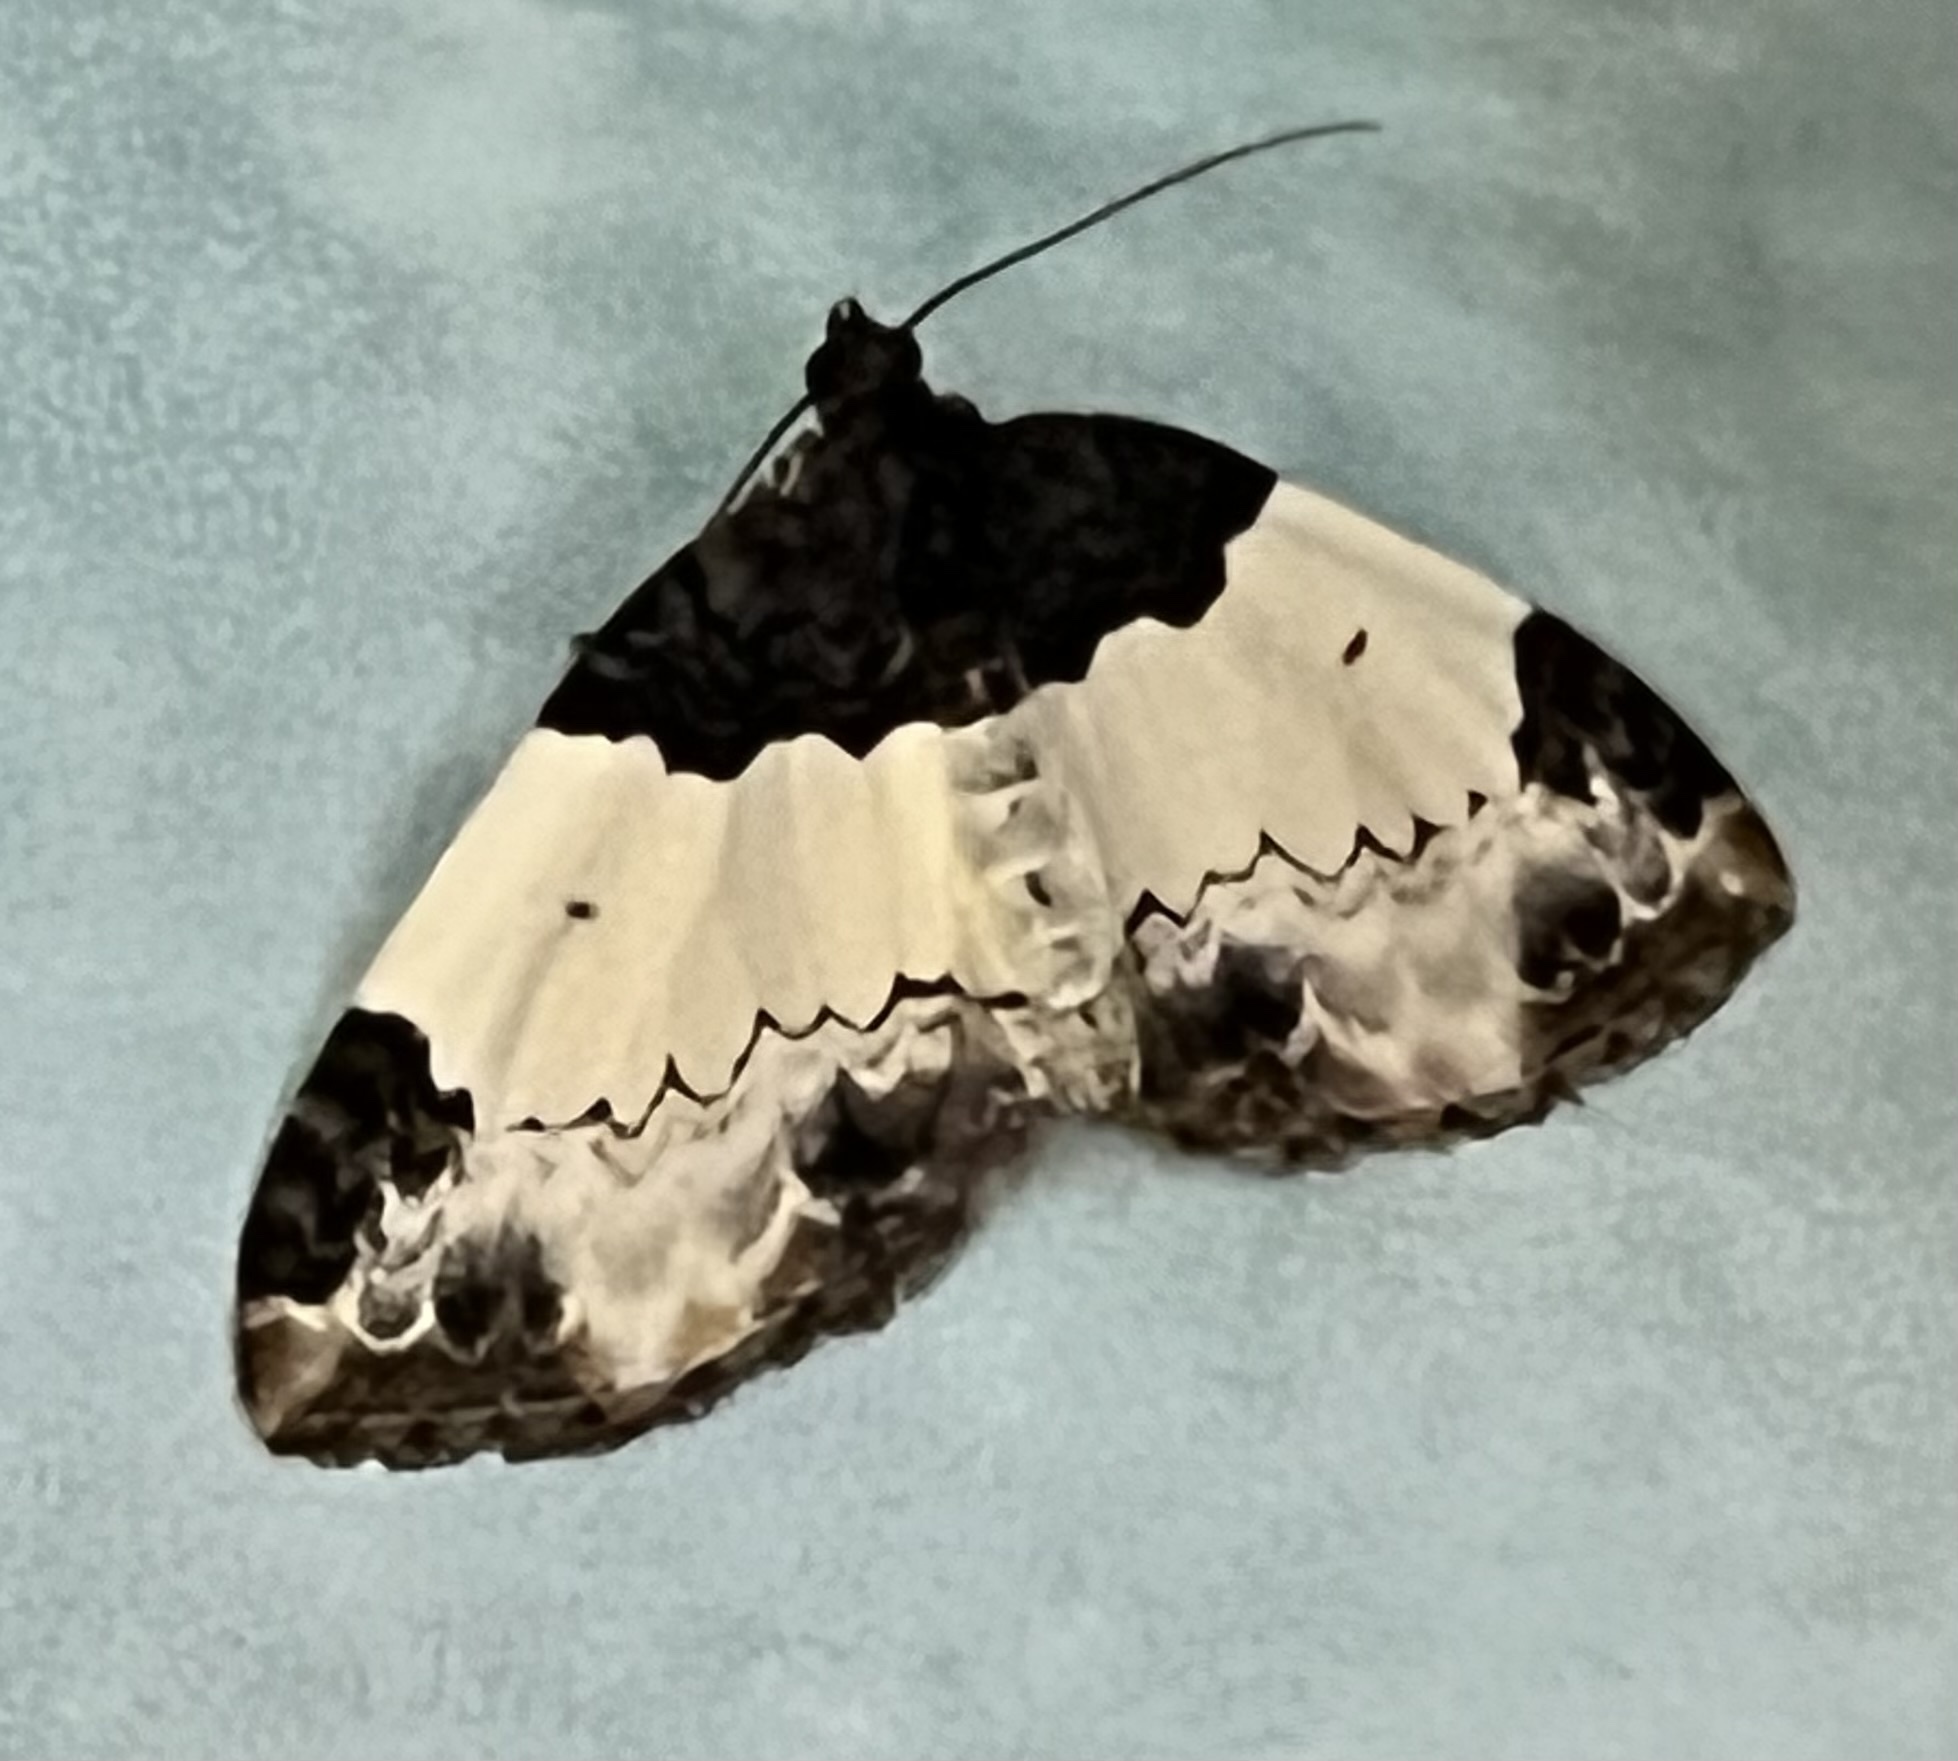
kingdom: Animalia
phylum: Arthropoda
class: Insecta
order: Lepidoptera
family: Geometridae
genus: Mesoleuca
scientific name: Mesoleuca ruficillata
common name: White-ribboned carpet moth
